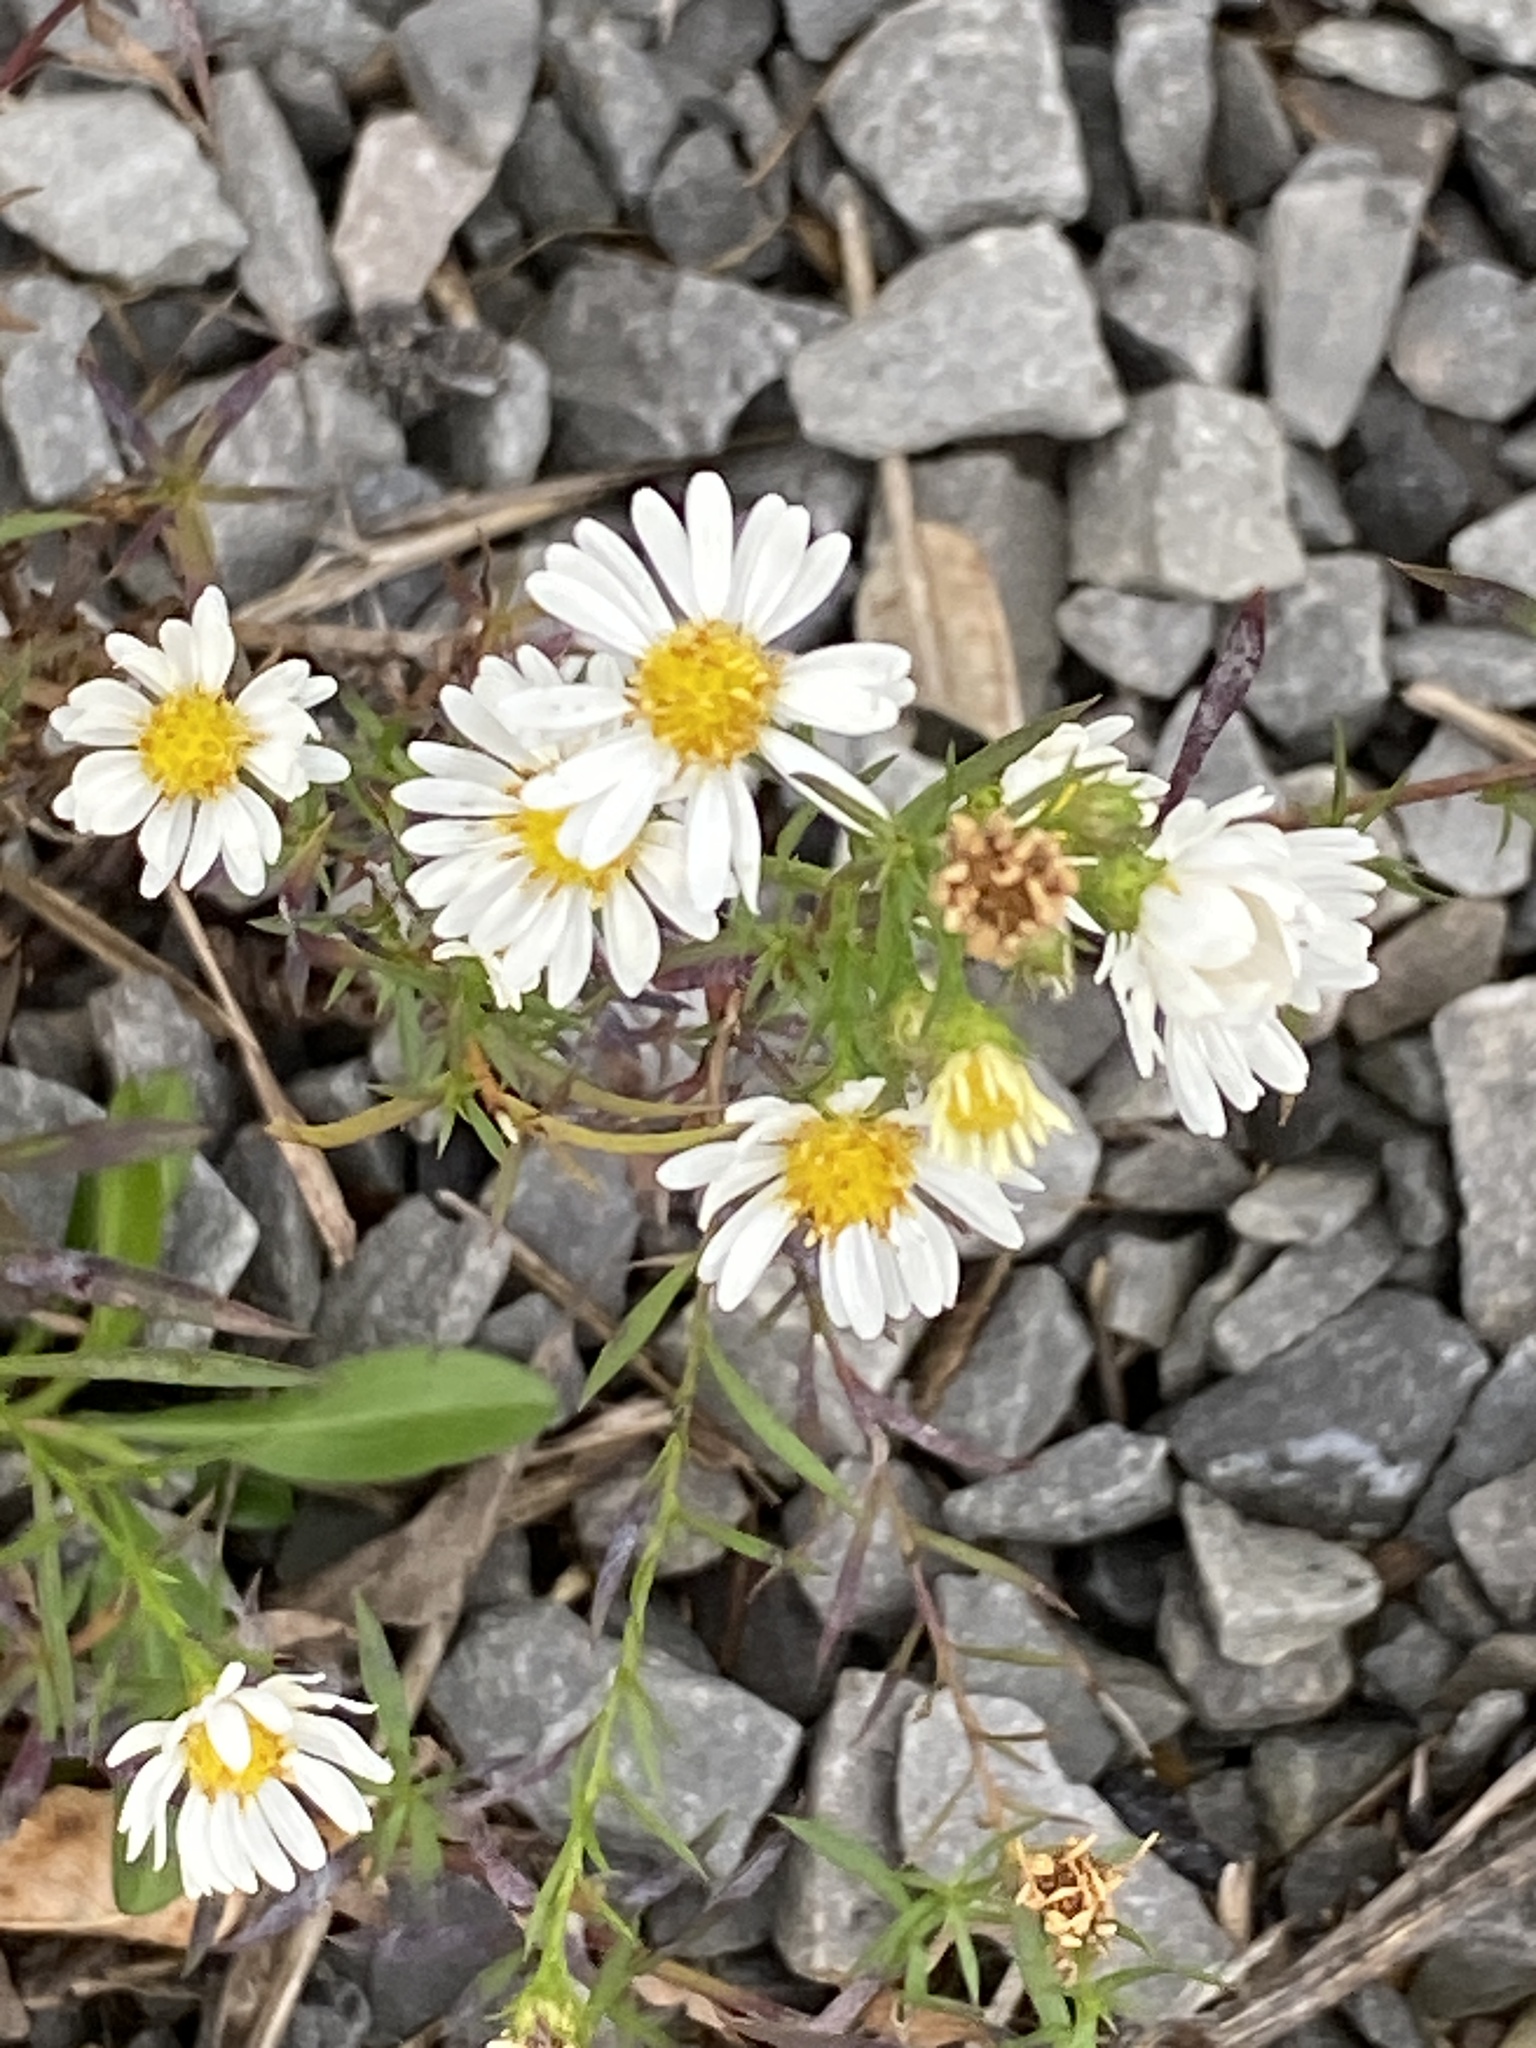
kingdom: Plantae
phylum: Tracheophyta
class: Magnoliopsida
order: Asterales
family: Asteraceae
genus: Symphyotrichum
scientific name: Symphyotrichum pilosum
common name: Awl aster
